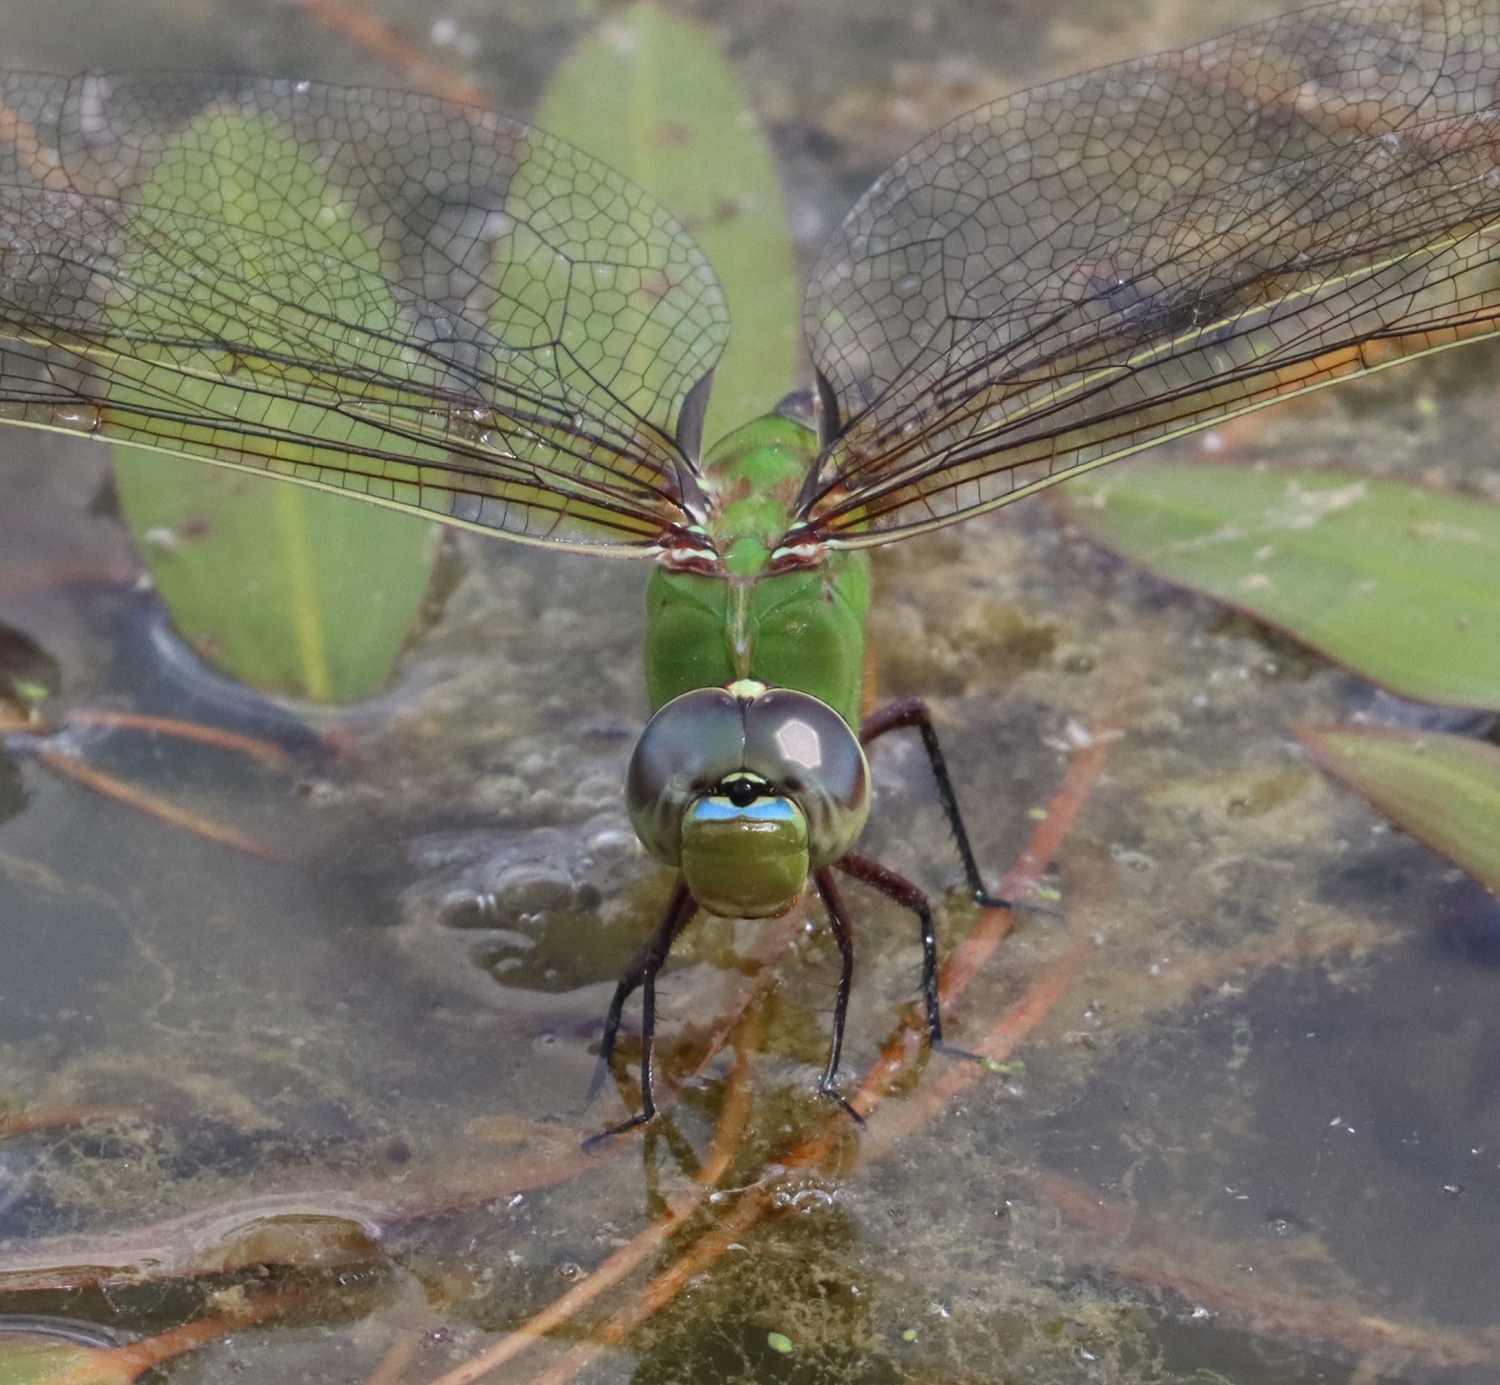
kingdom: Animalia
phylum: Arthropoda
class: Insecta
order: Odonata
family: Aeshnidae
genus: Anax
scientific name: Anax junius
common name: Common green darner
